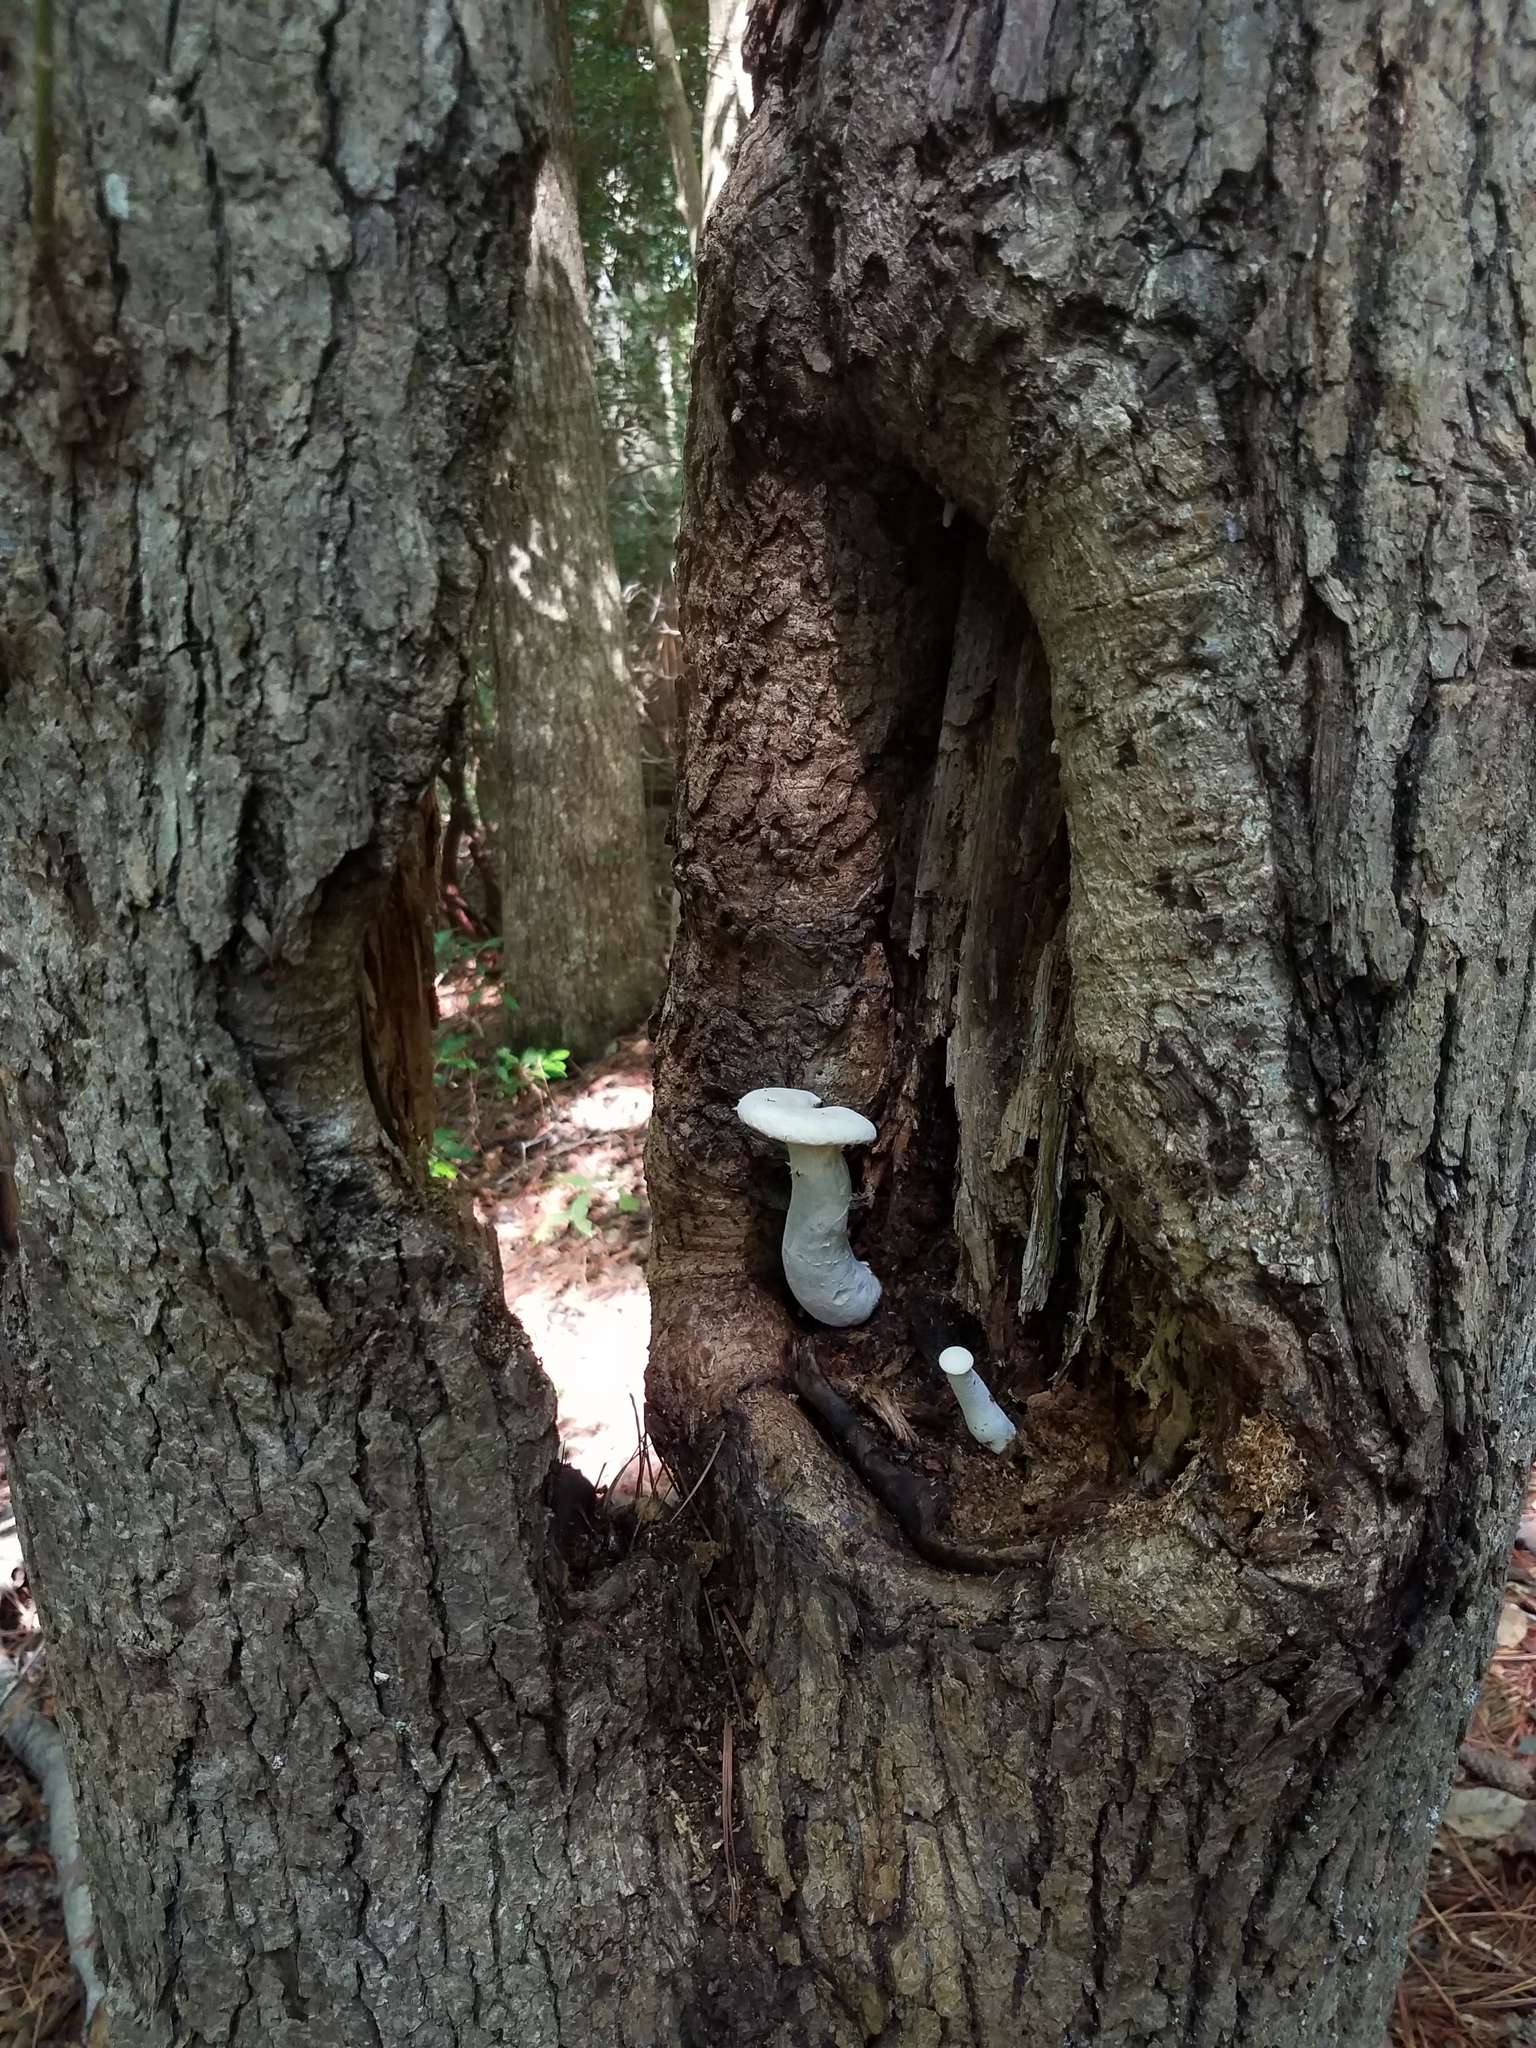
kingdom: Fungi
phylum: Basidiomycota
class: Agaricomycetes
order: Polyporales
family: Polyporaceae
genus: Lentinus
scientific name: Lentinus levis
